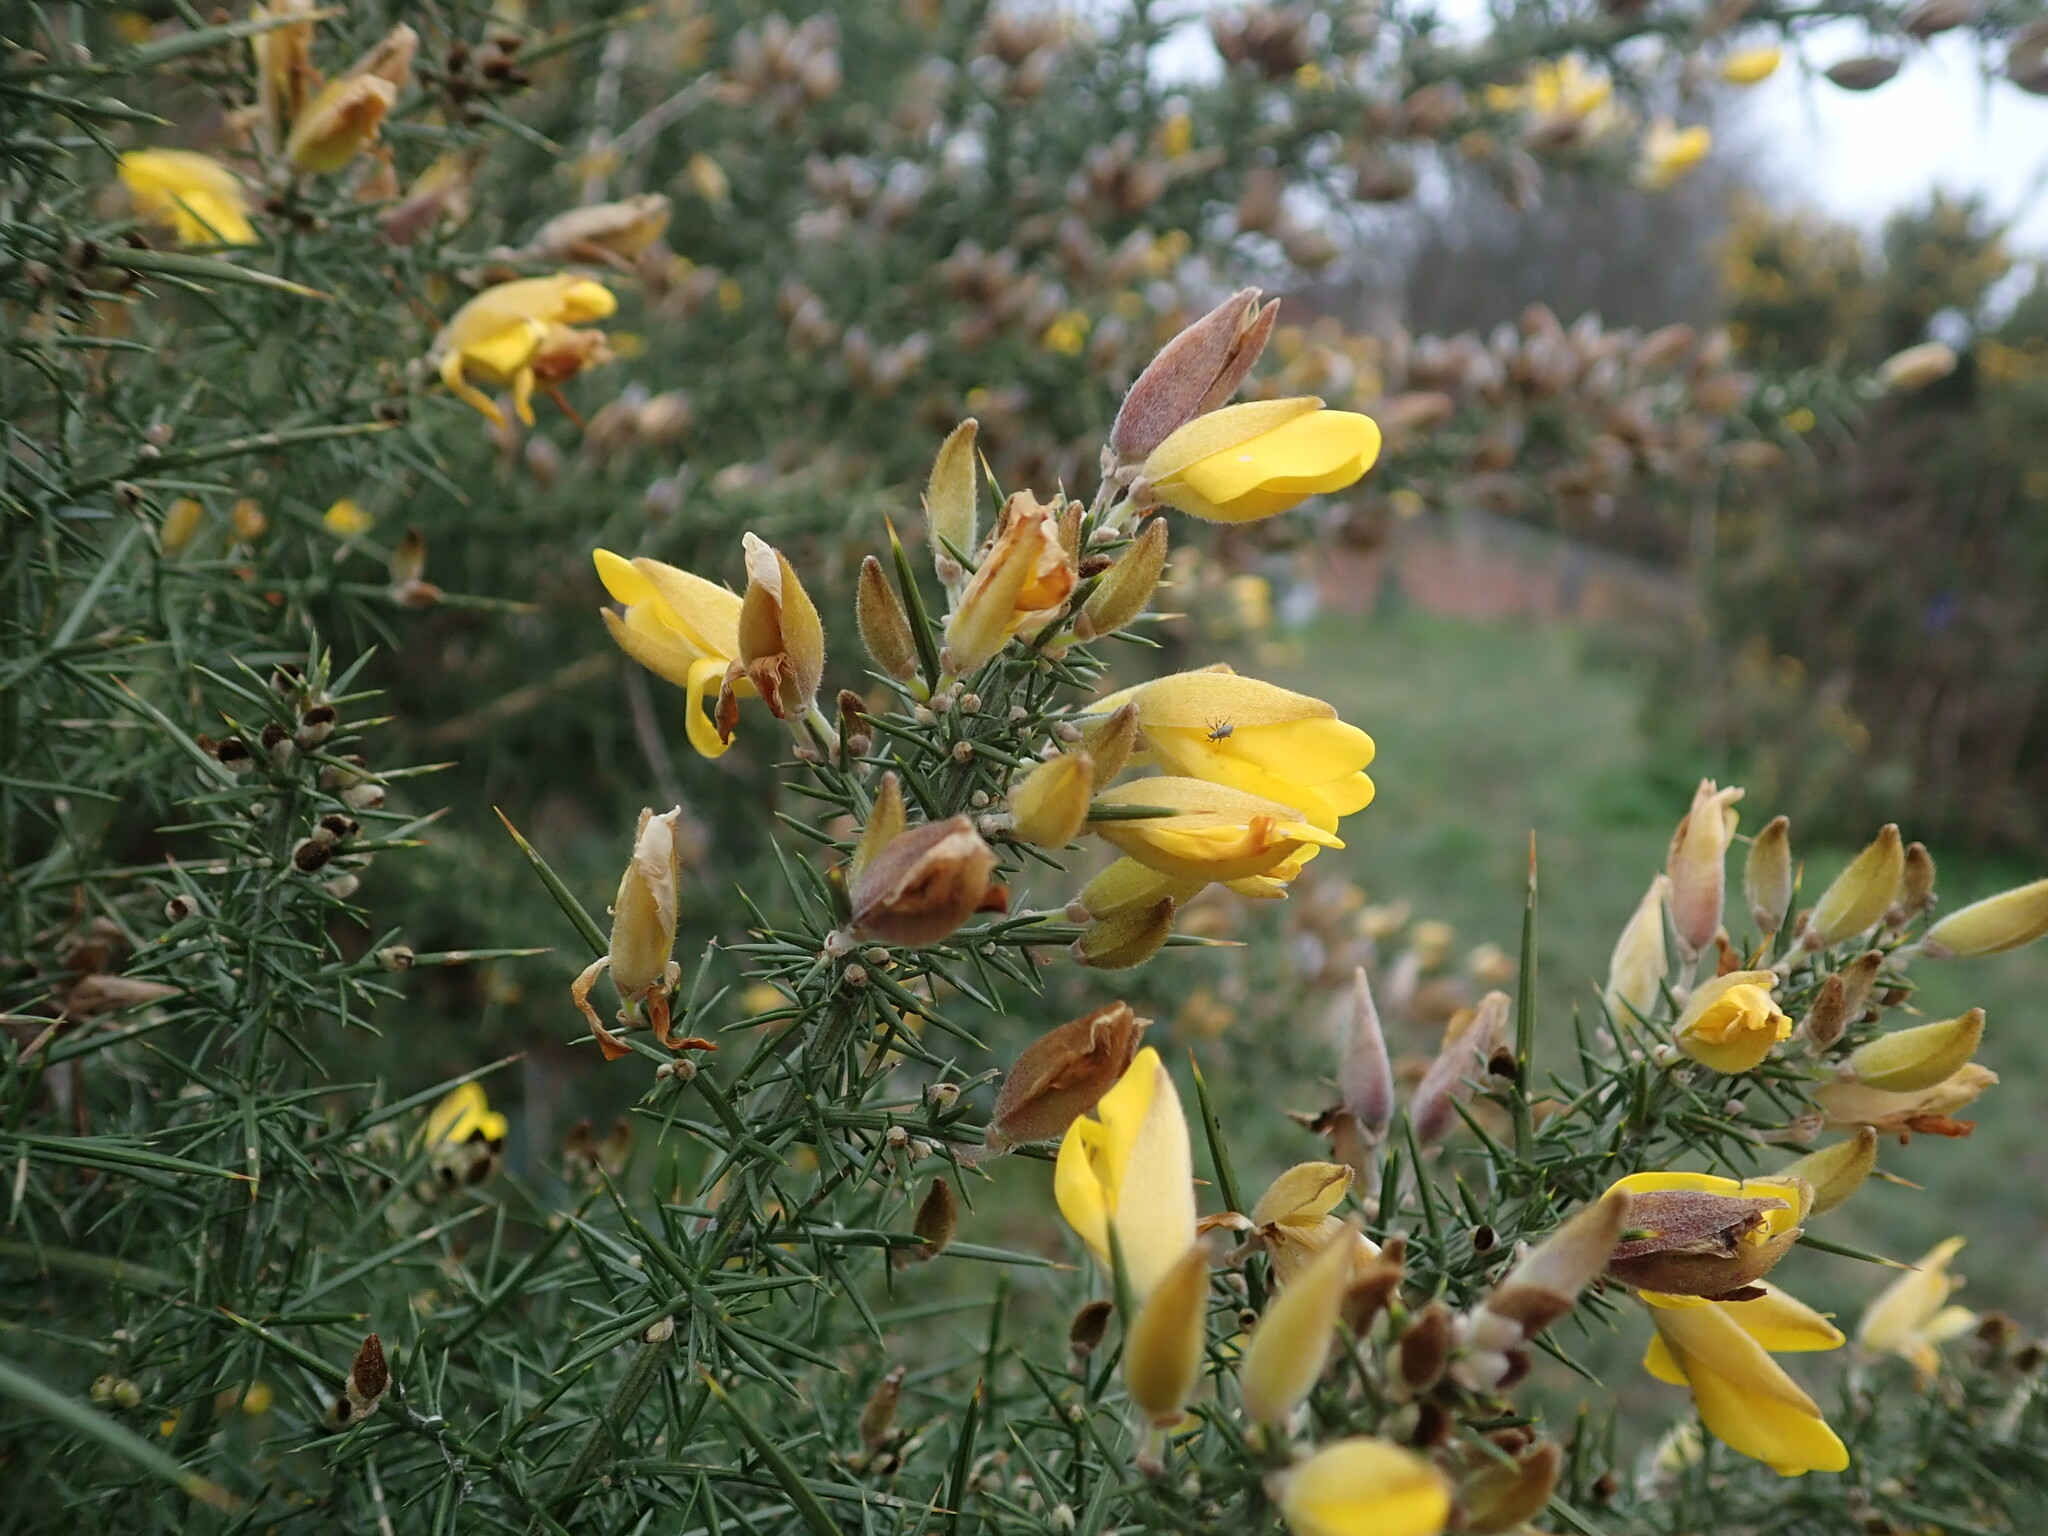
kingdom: Plantae
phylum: Tracheophyta
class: Magnoliopsida
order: Fabales
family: Fabaceae
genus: Ulex
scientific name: Ulex europaeus
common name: Common gorse
